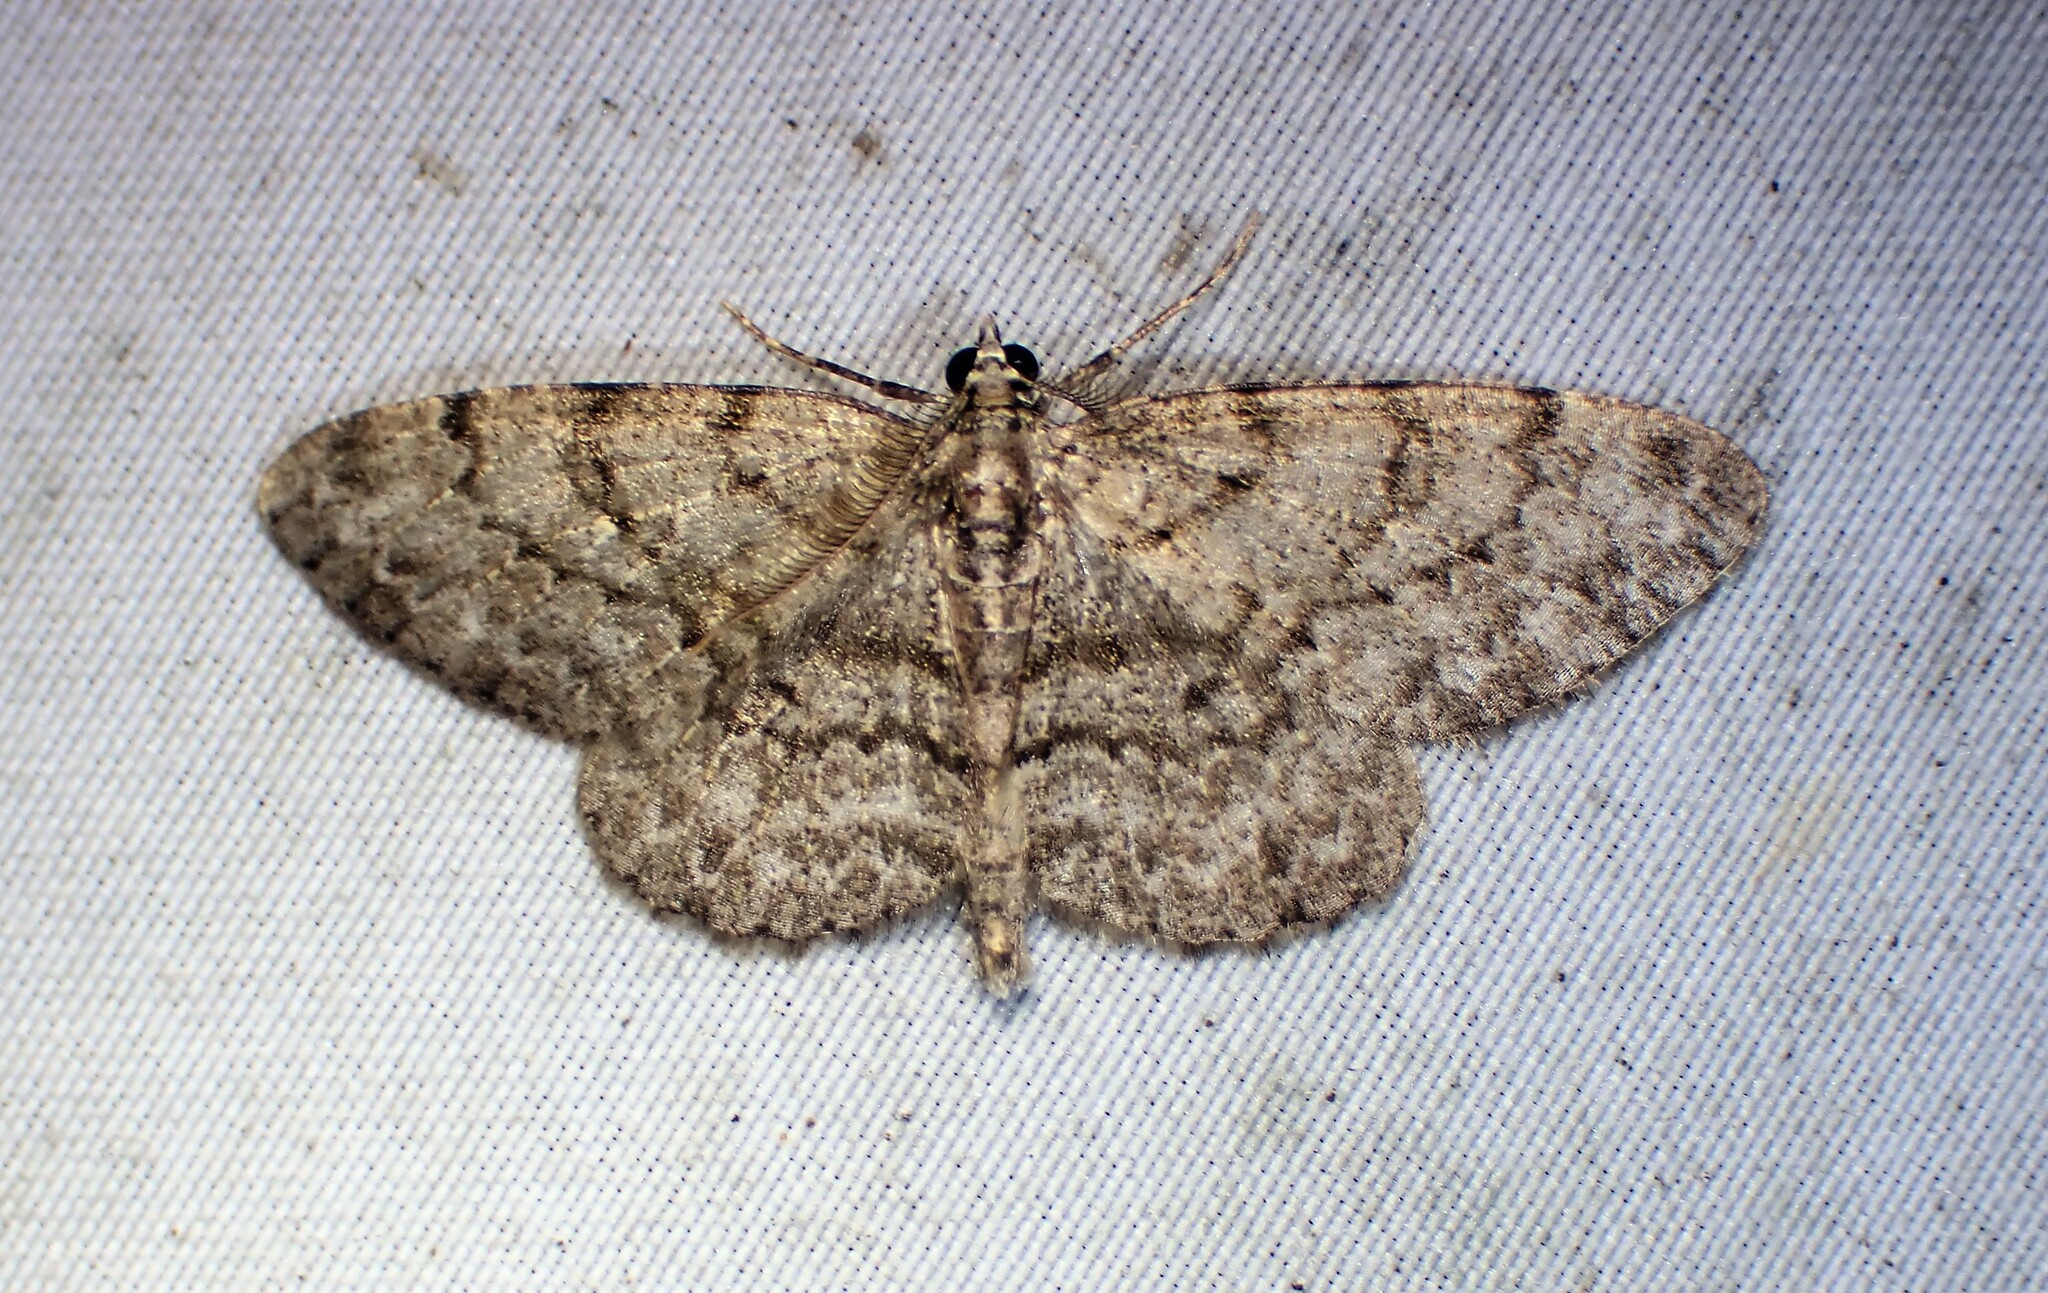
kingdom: Animalia
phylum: Arthropoda
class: Insecta
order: Lepidoptera
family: Geometridae
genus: Protoboarmia
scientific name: Protoboarmia porcelaria
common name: Porcelain gray
